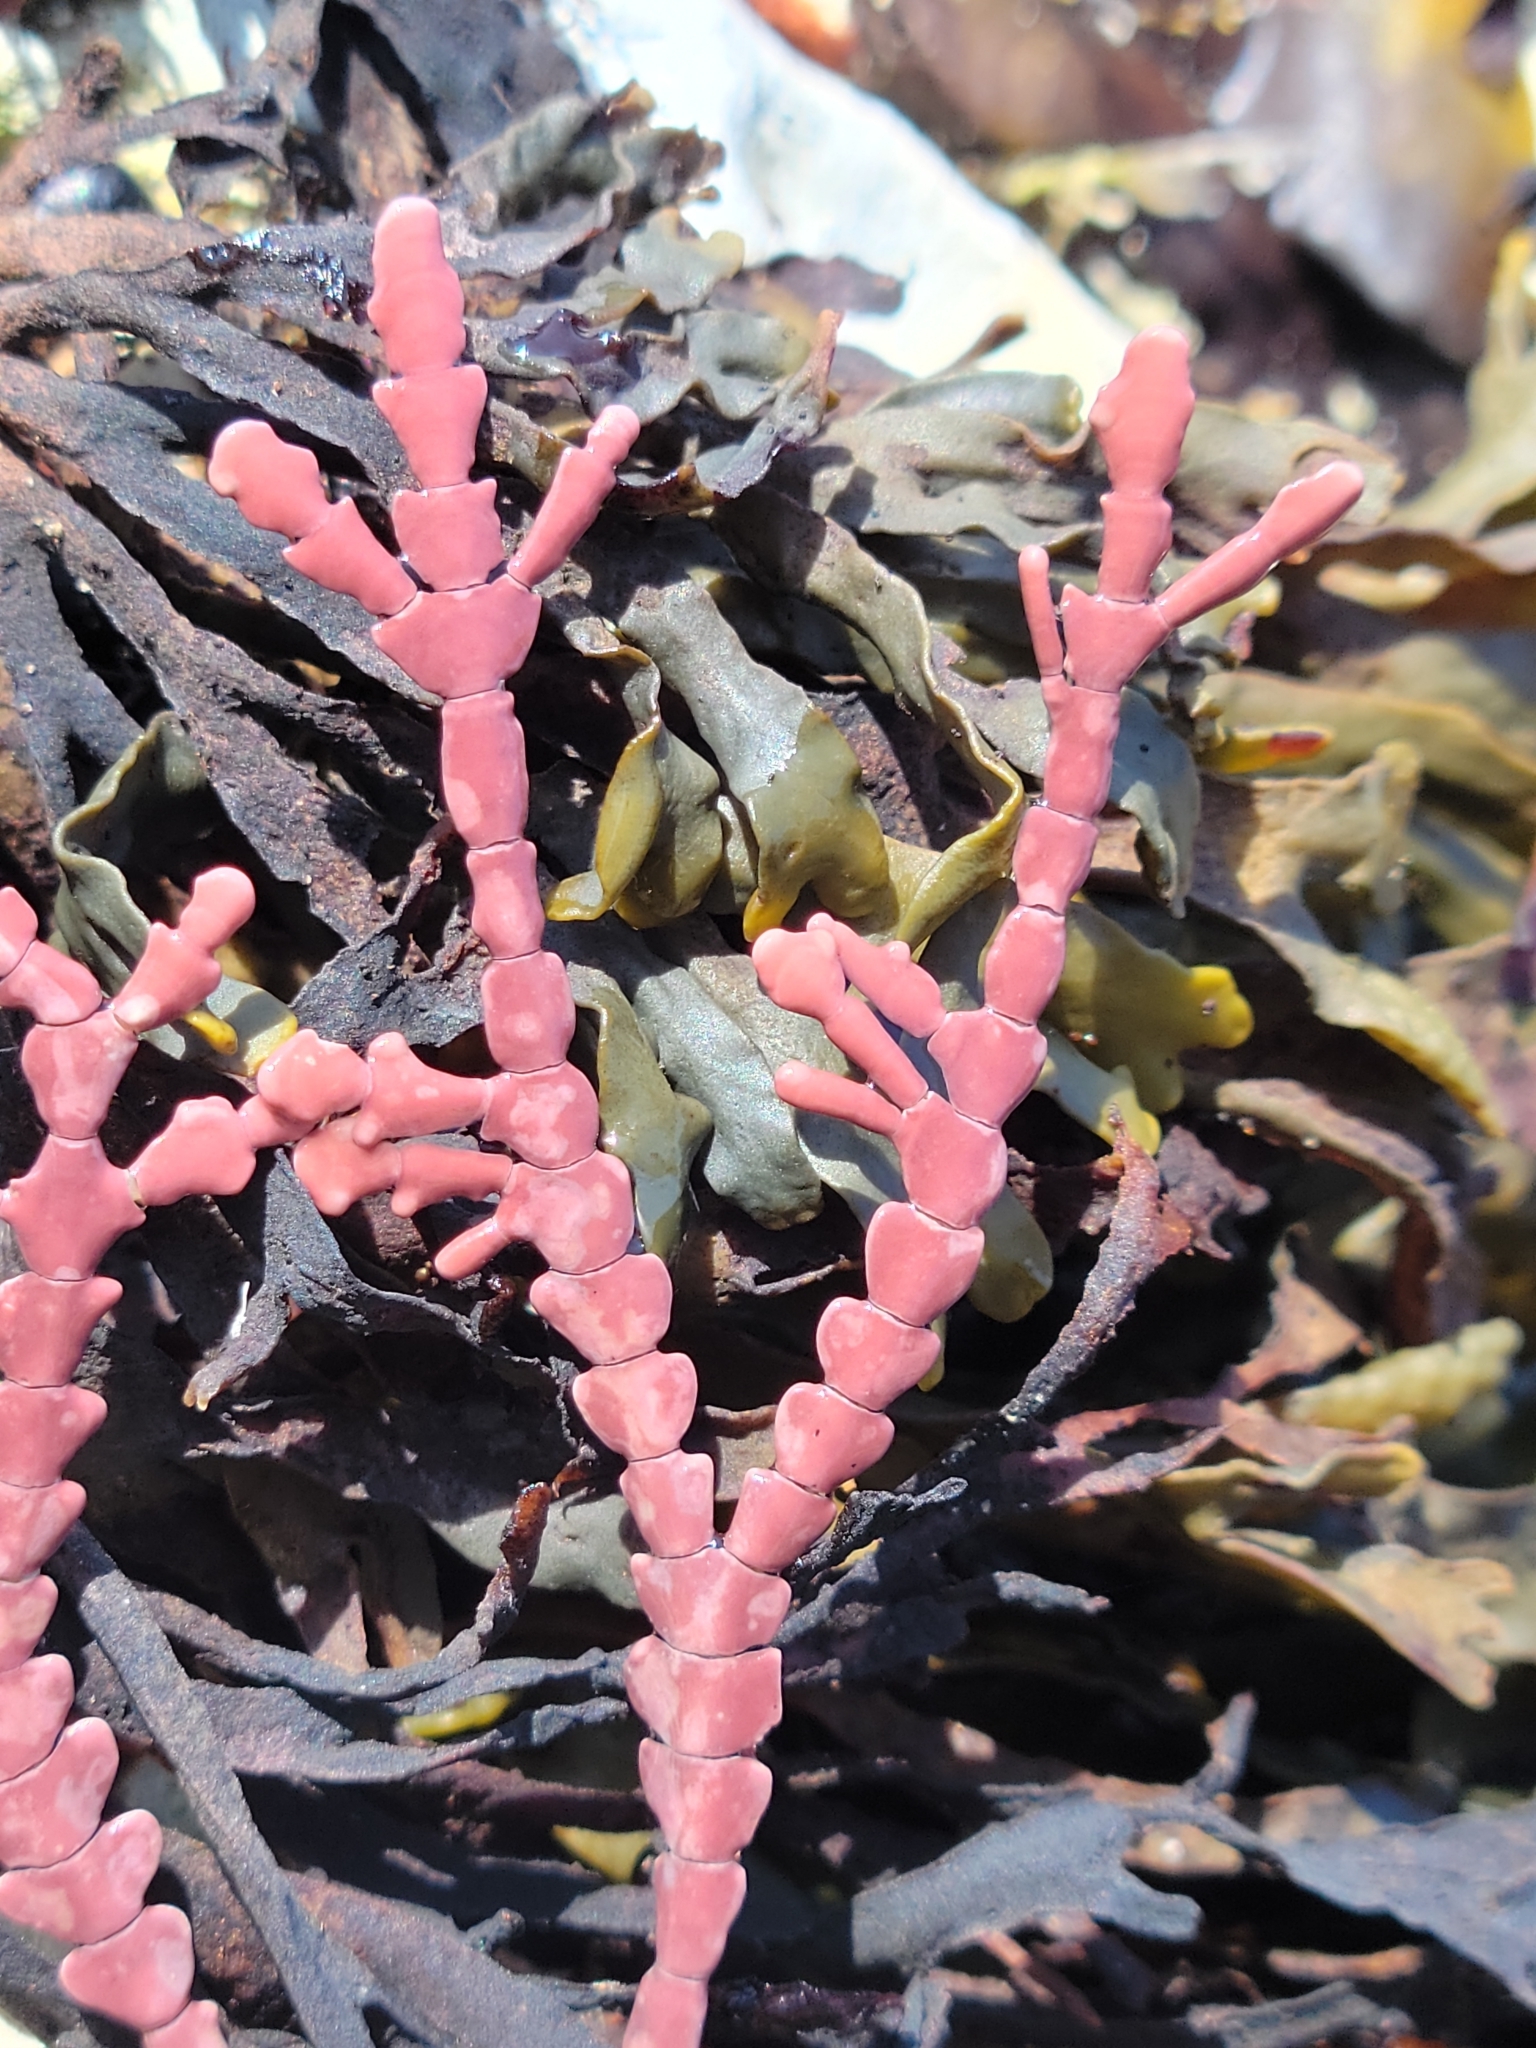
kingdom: Plantae
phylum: Rhodophyta
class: Florideophyceae
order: Corallinales
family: Corallinaceae
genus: Calliarthron
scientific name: Calliarthron tuberculosum
